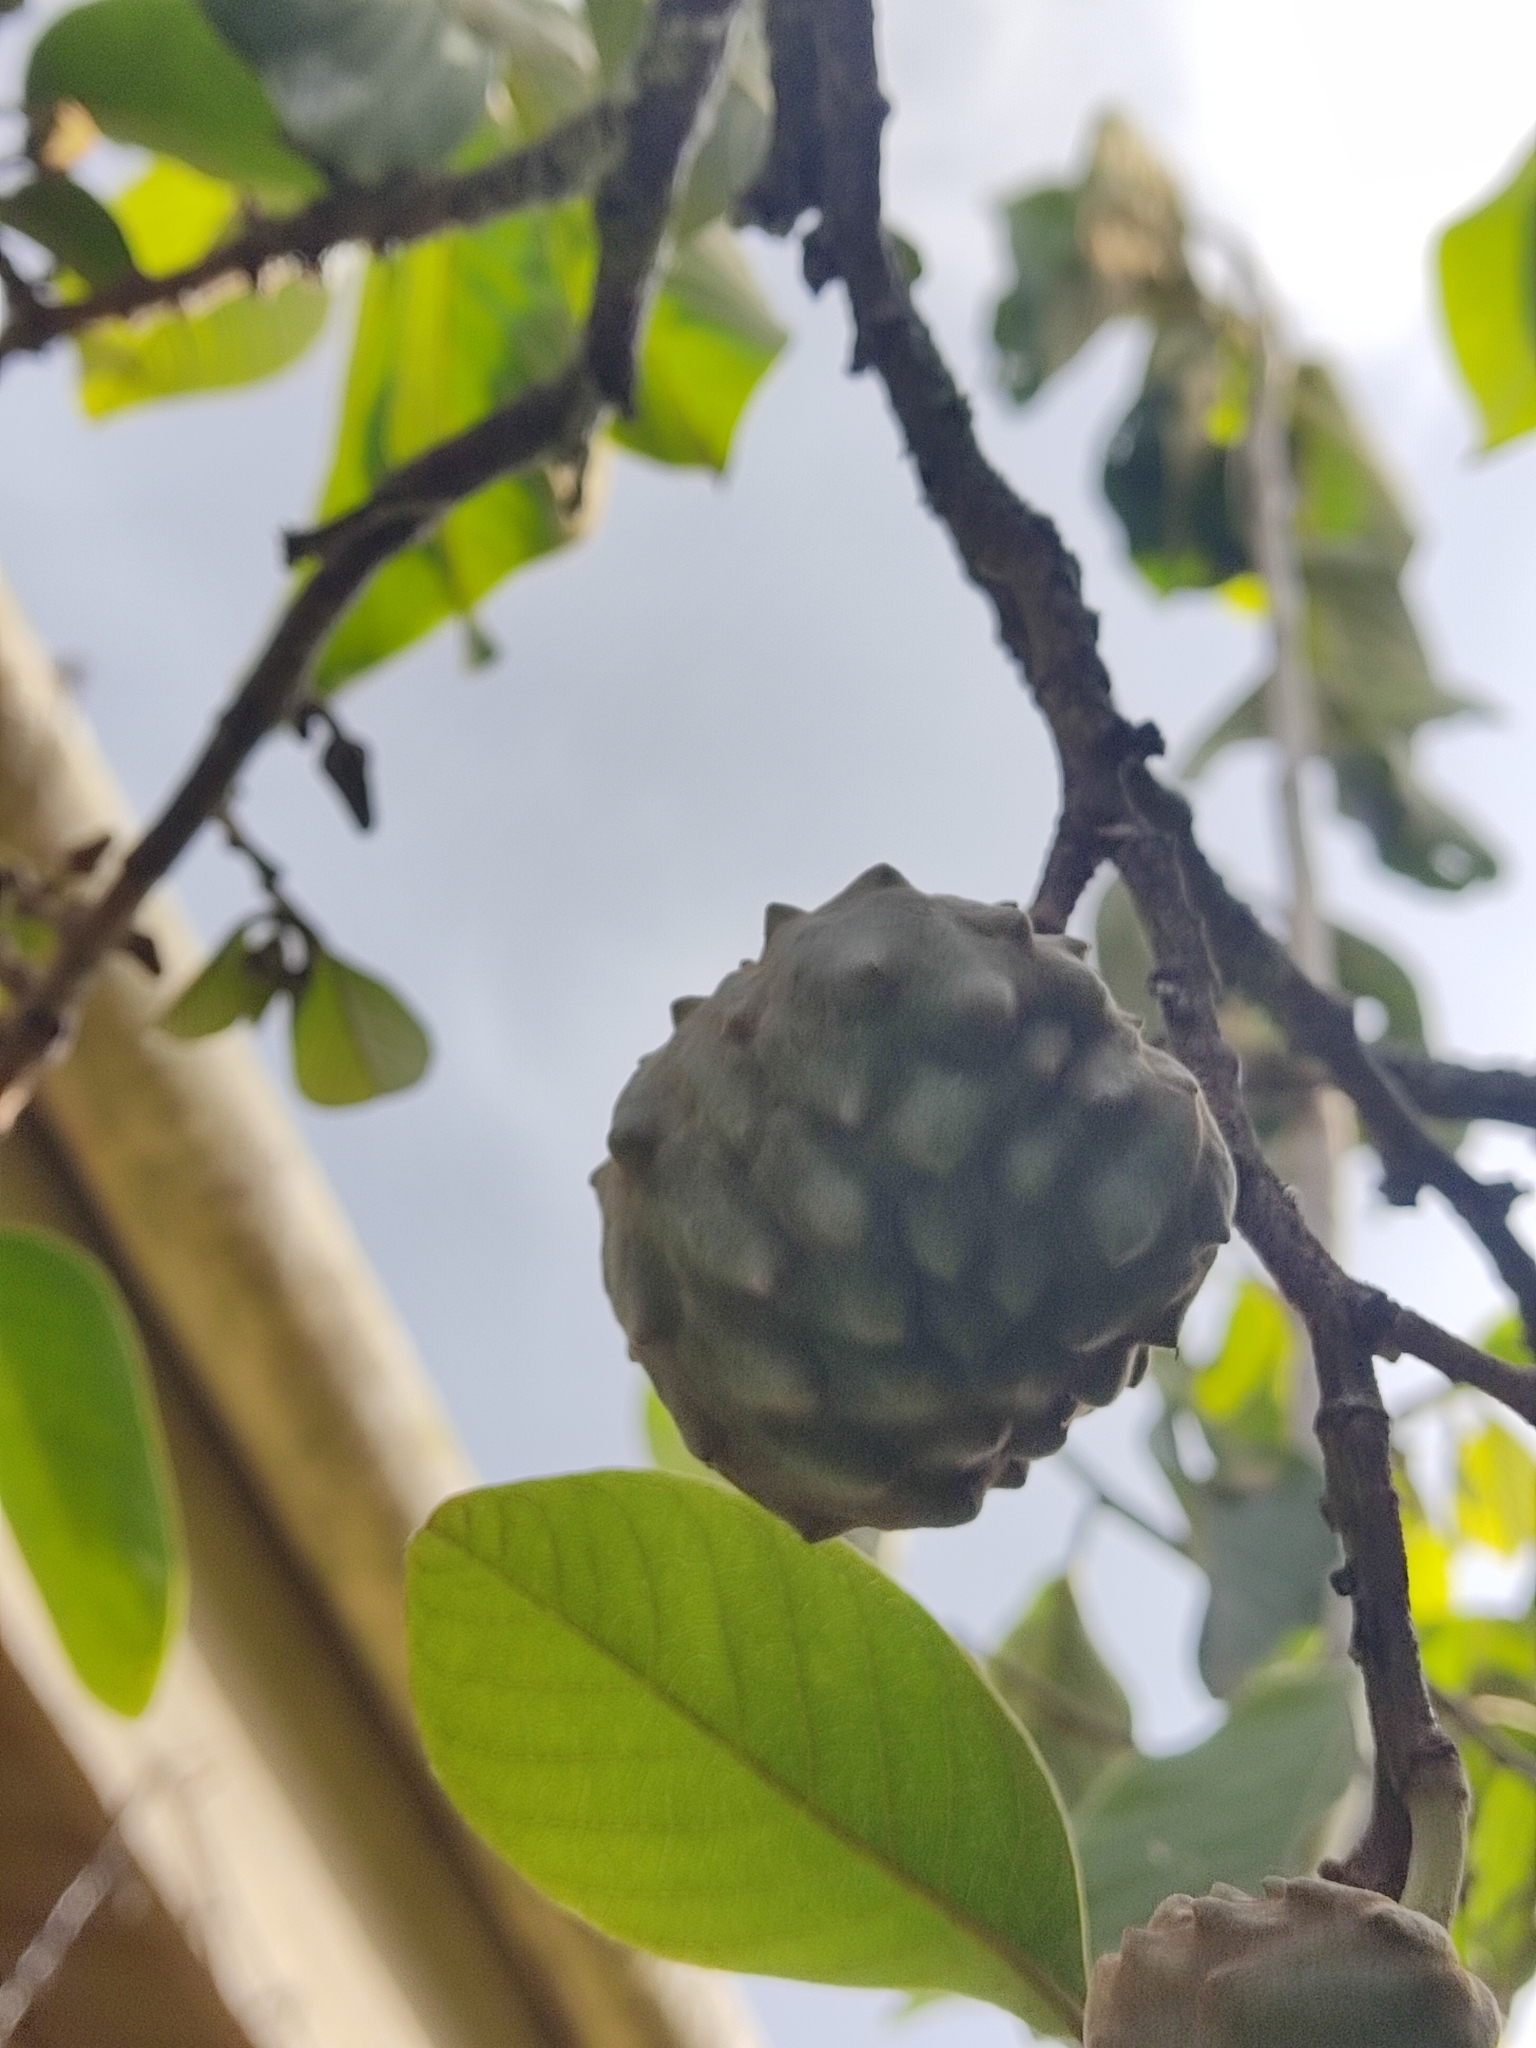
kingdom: Plantae
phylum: Tracheophyta
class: Magnoliopsida
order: Magnoliales
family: Annonaceae
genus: Annona
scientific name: Annona cherimola
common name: Cherimoya
